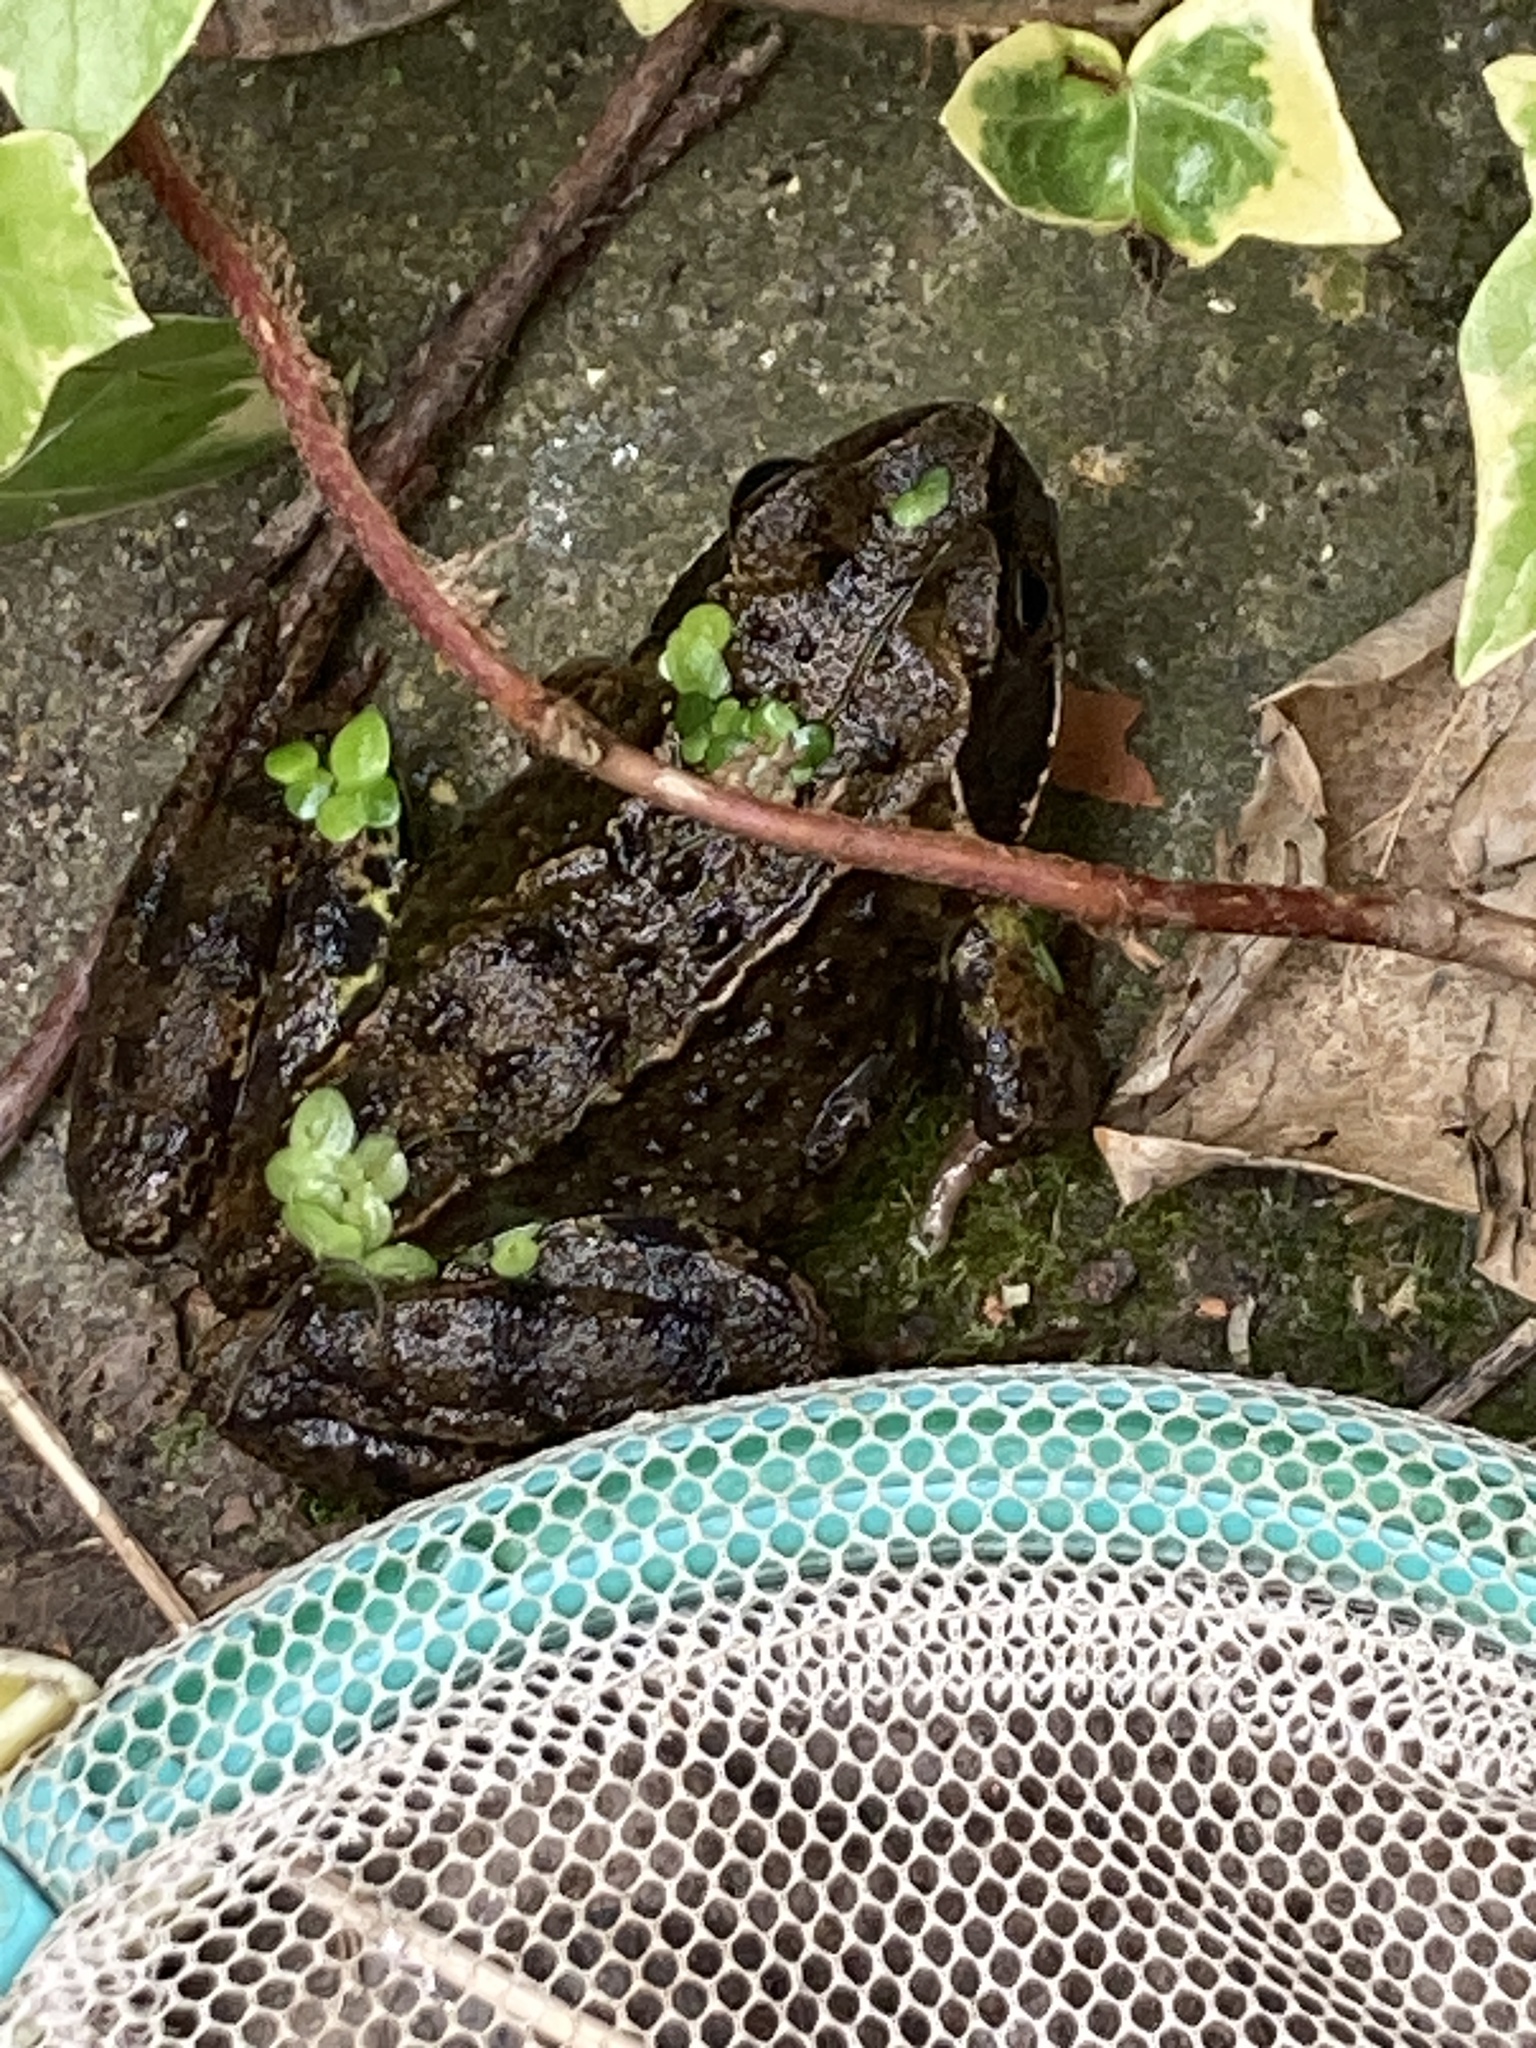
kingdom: Animalia
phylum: Chordata
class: Amphibia
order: Anura
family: Ranidae
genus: Rana
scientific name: Rana temporaria
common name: Common frog
